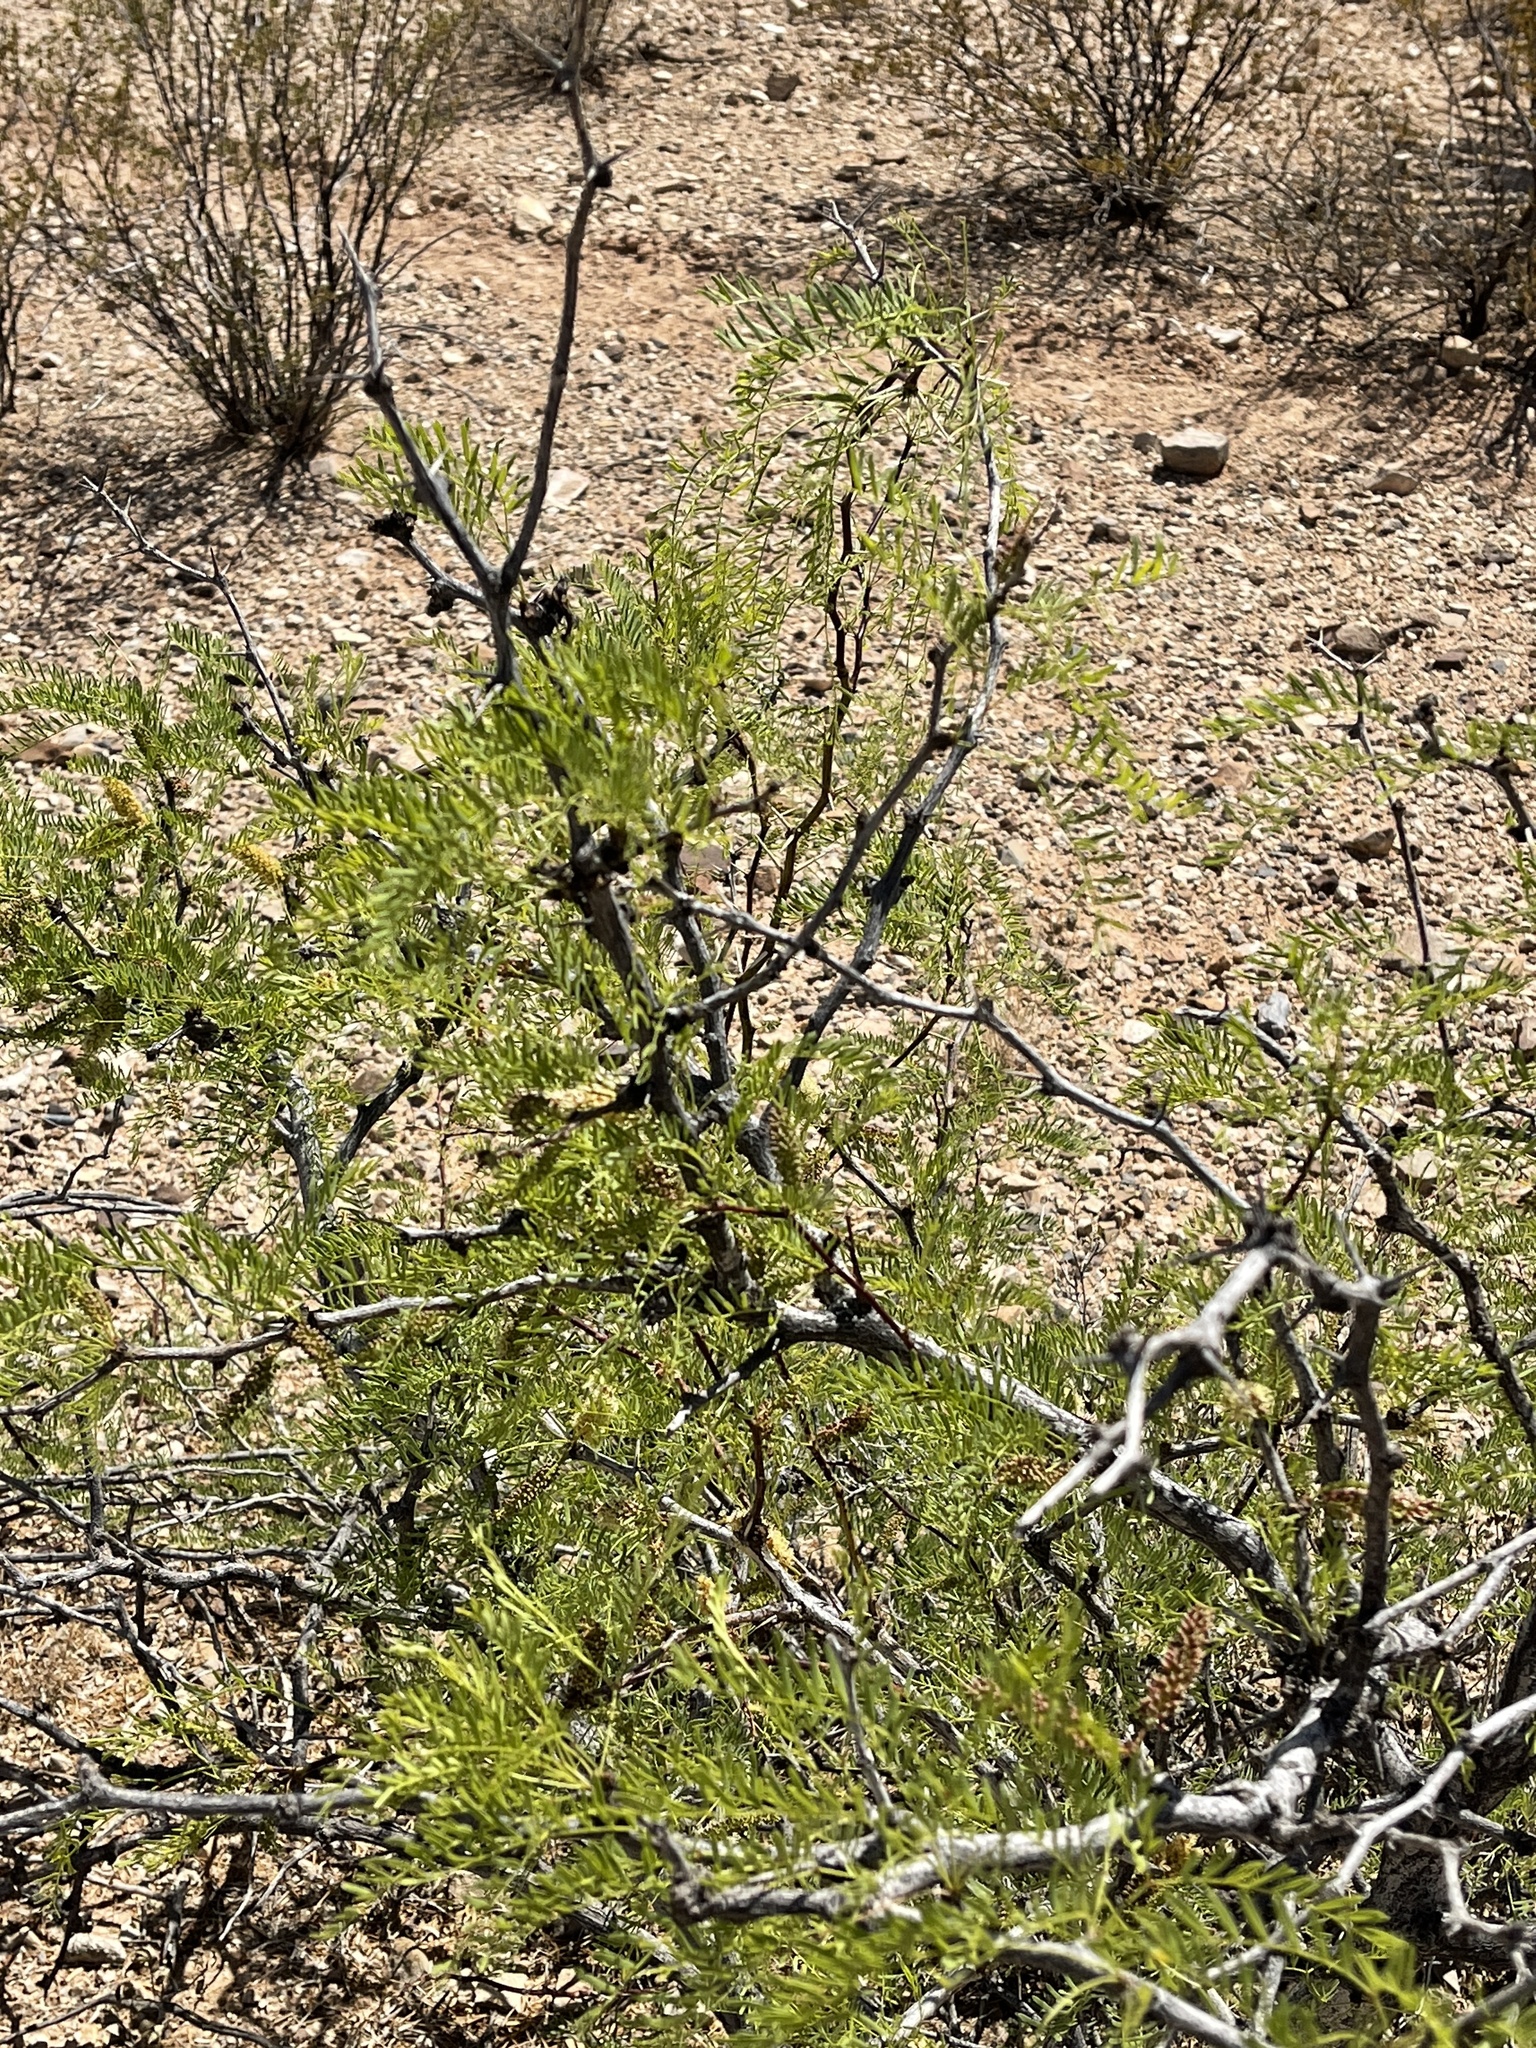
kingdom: Plantae
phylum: Tracheophyta
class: Magnoliopsida
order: Fabales
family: Fabaceae
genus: Prosopis
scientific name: Prosopis glandulosa
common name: Honey mesquite
